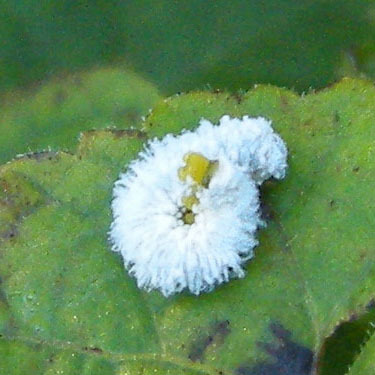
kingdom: Animalia
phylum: Arthropoda
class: Insecta
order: Hymenoptera
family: Tenthredinidae
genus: Macremphytus
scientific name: Macremphytus testaceus
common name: Dogwood sawfly
